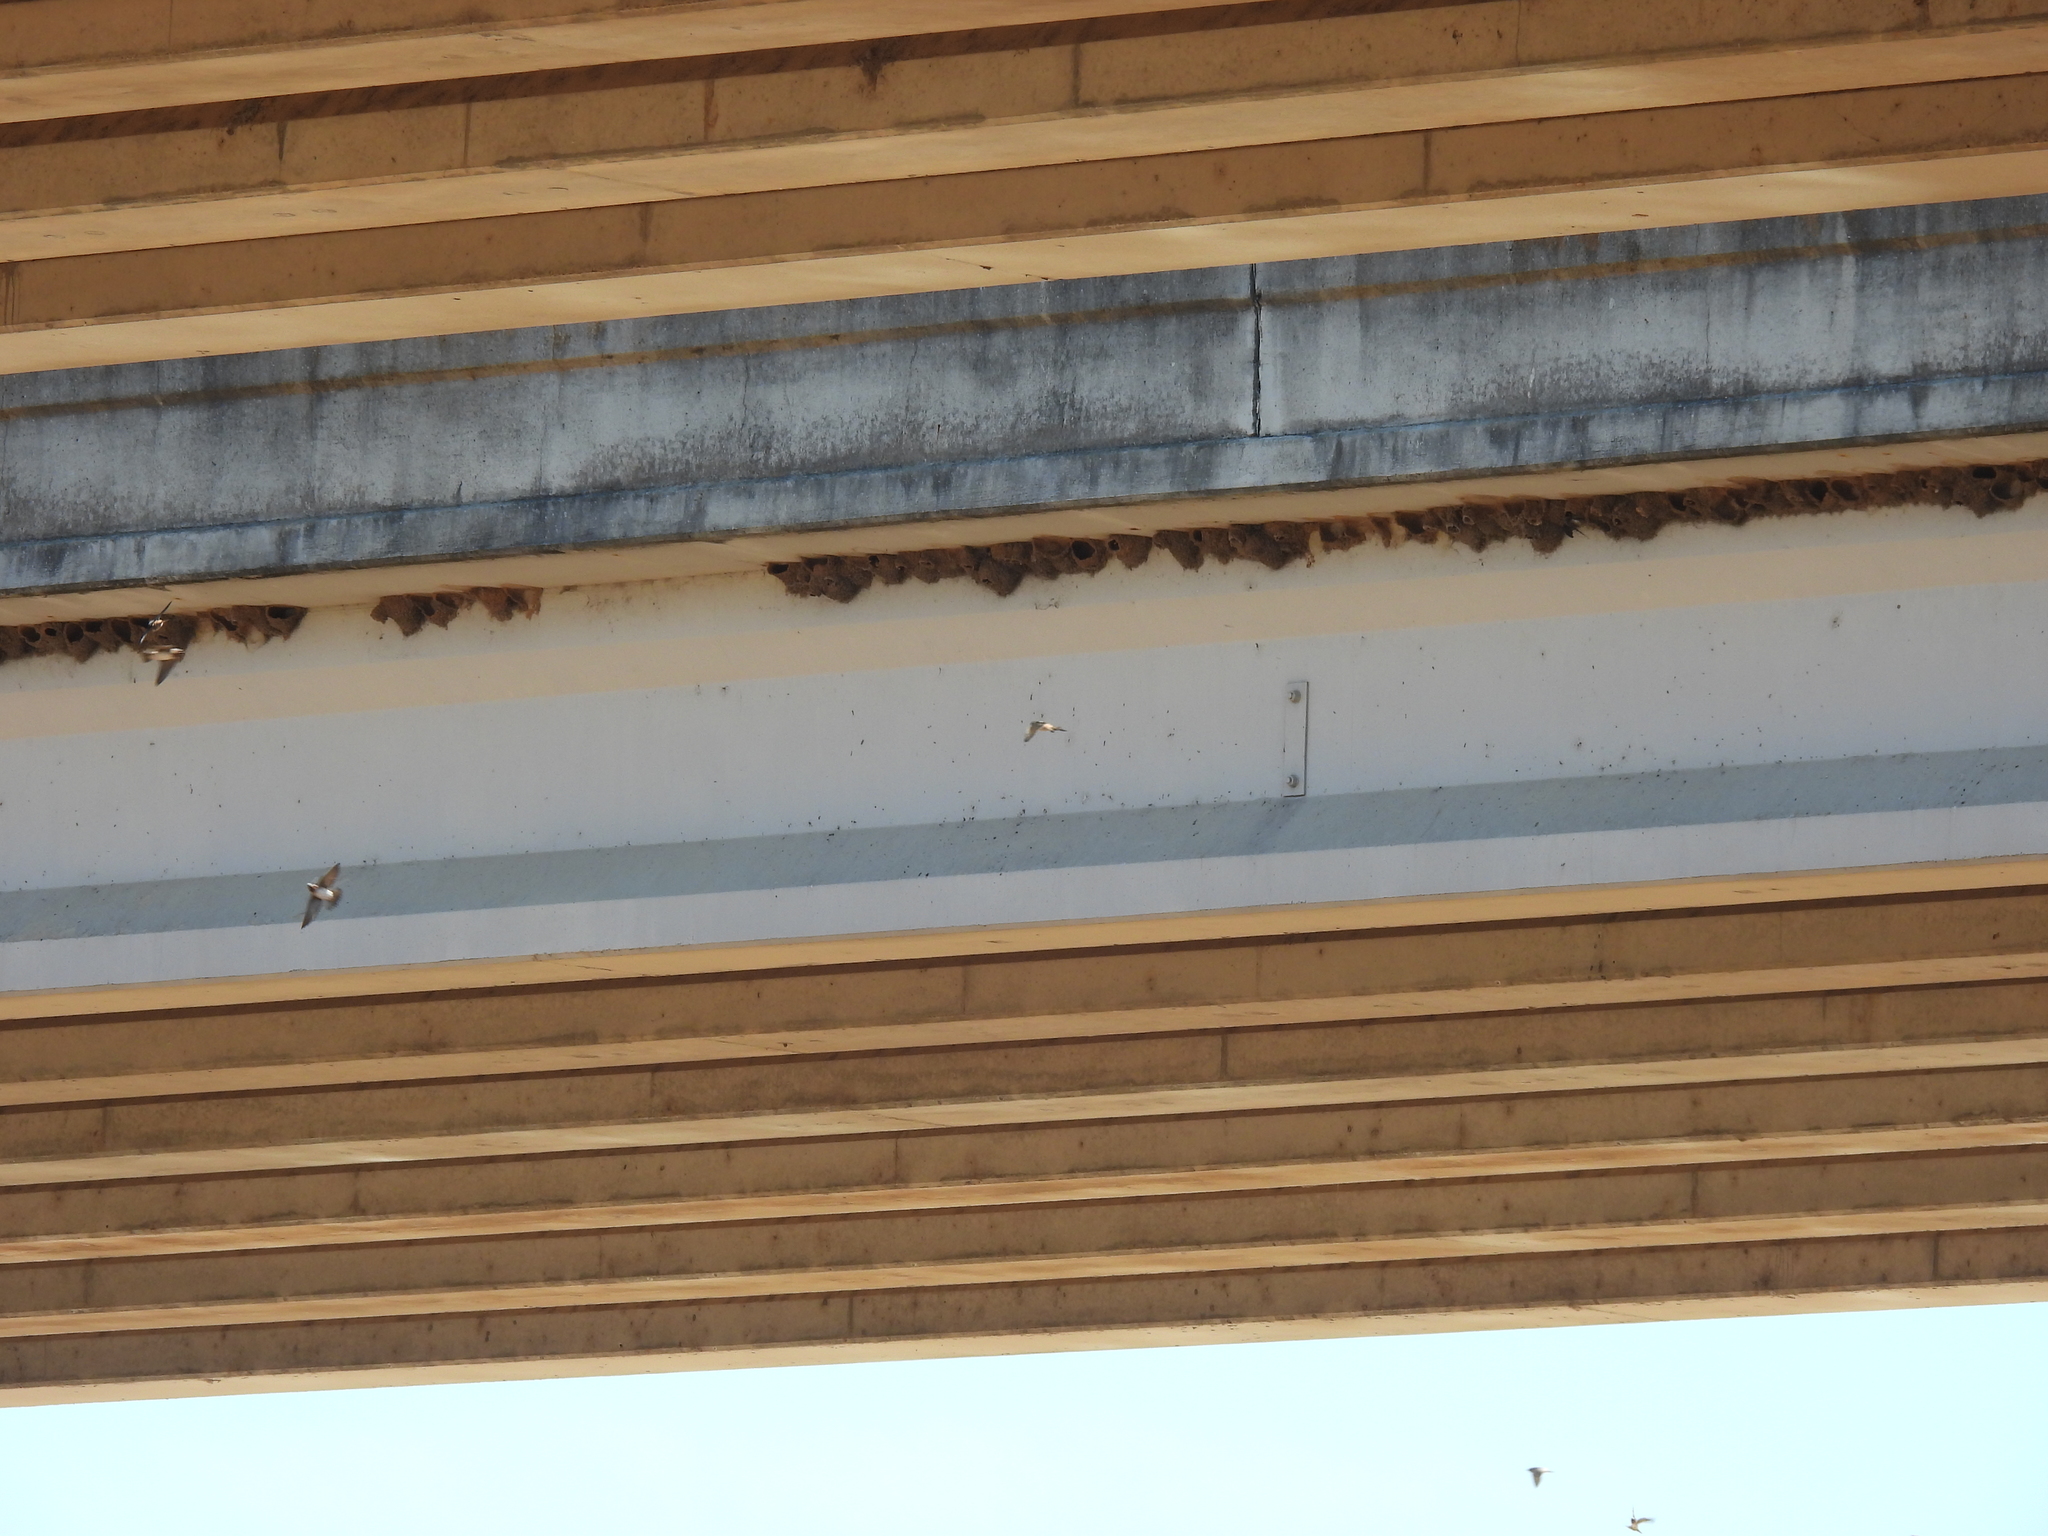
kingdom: Animalia
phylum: Chordata
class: Aves
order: Passeriformes
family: Hirundinidae
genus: Petrochelidon
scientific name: Petrochelidon pyrrhonota
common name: American cliff swallow
